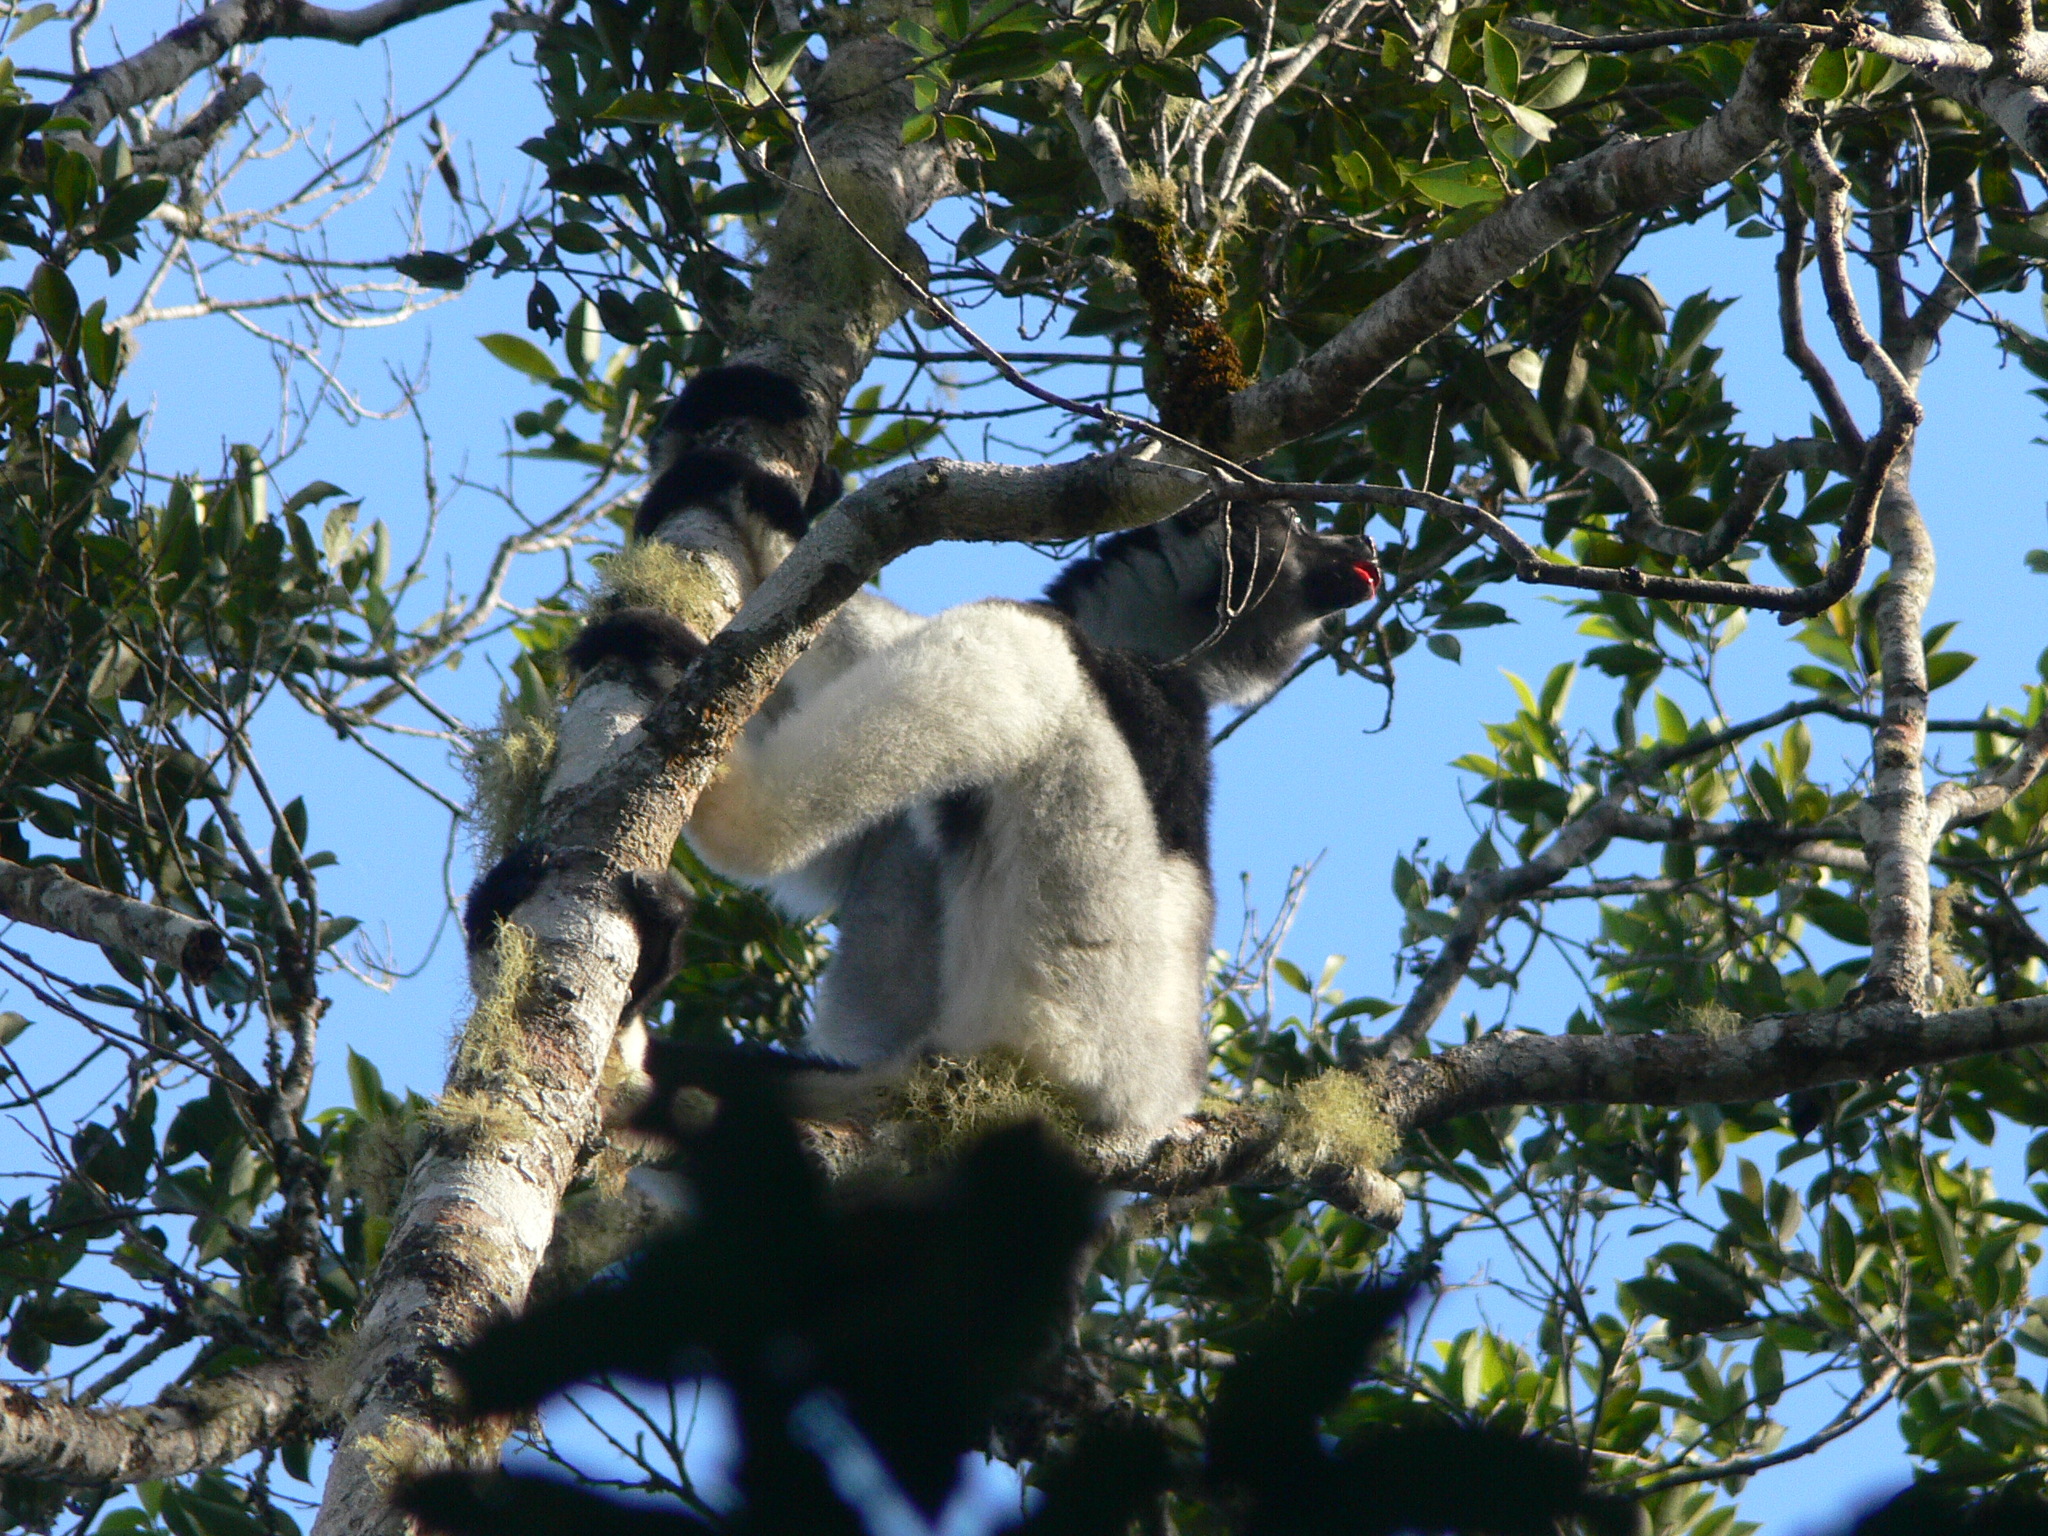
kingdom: Animalia
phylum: Chordata
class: Mammalia
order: Primates
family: Indriidae
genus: Indri
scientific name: Indri indri
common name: Indri
